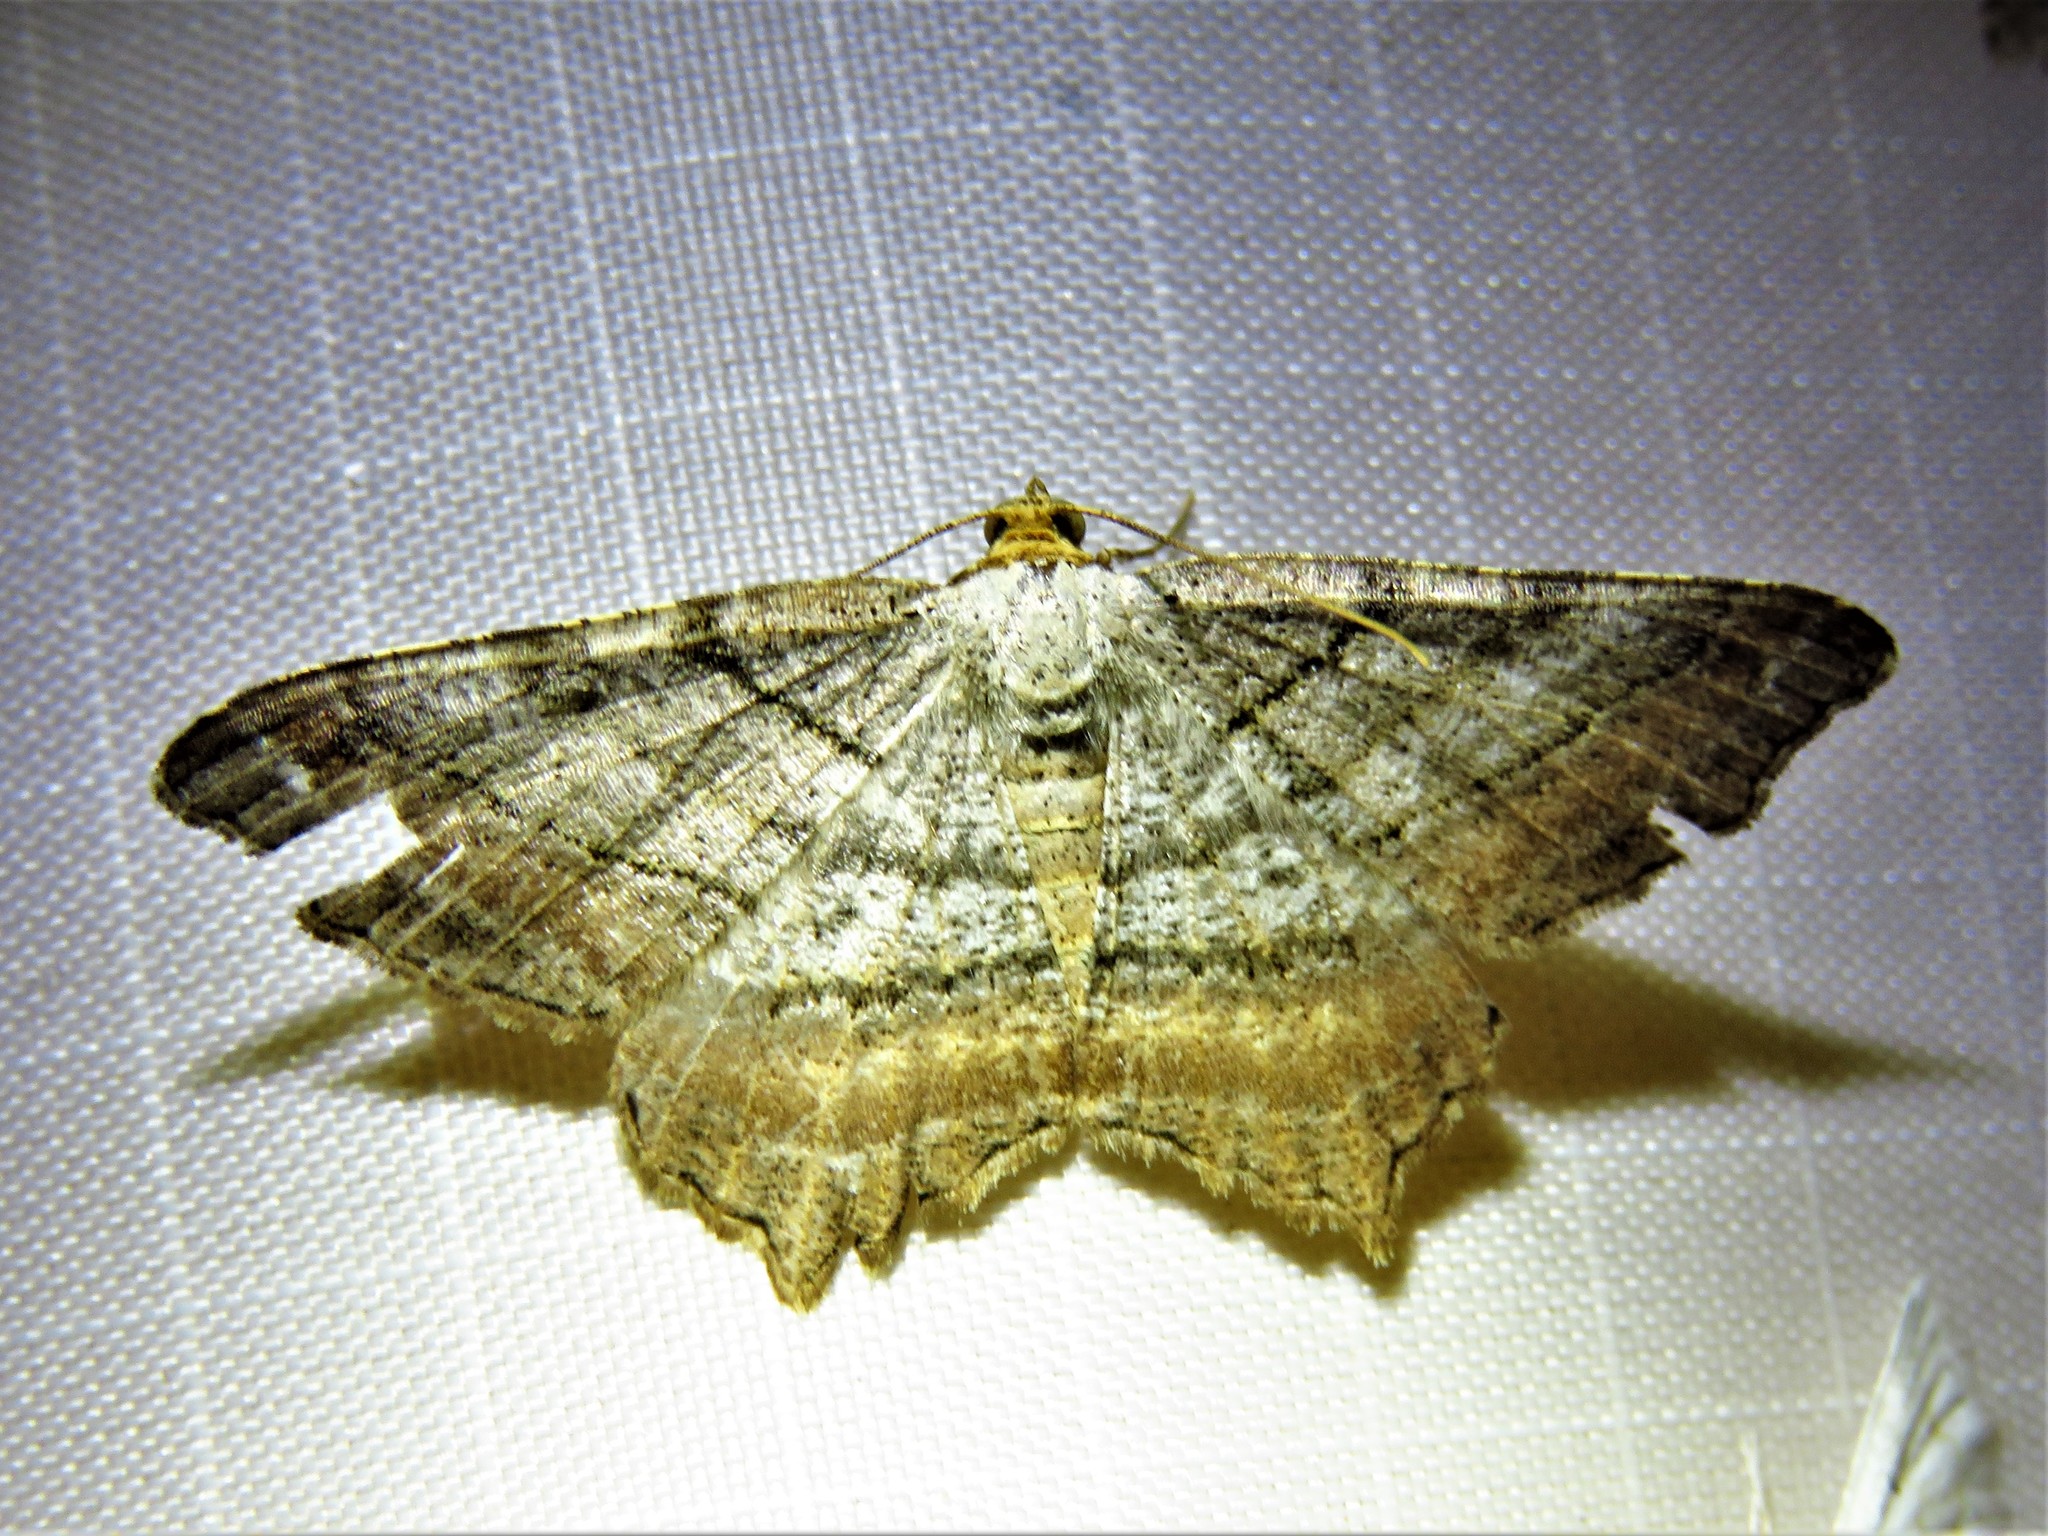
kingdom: Animalia
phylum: Arthropoda
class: Insecta
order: Lepidoptera
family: Geometridae
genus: Macaria
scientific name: Macaria multilineata
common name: Many-lined angle
